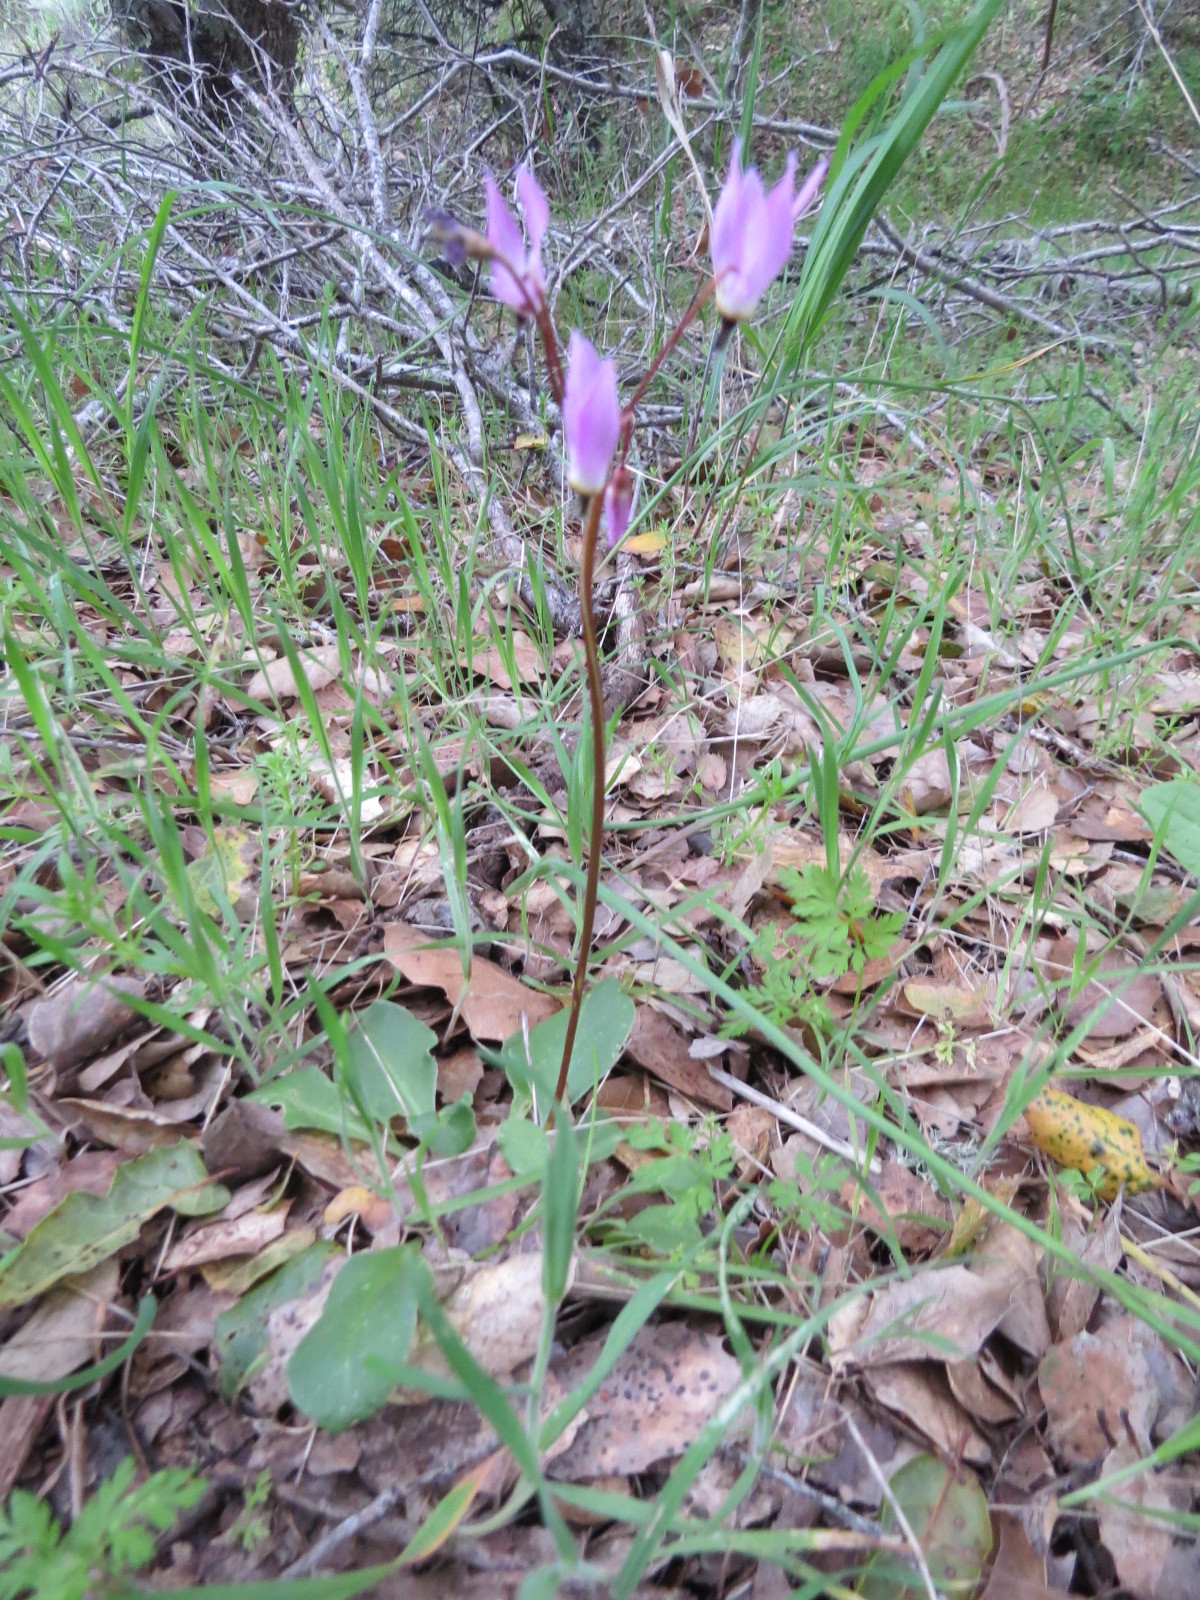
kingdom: Plantae
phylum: Tracheophyta
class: Magnoliopsida
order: Ericales
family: Primulaceae
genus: Dodecatheon
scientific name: Dodecatheon hendersonii
